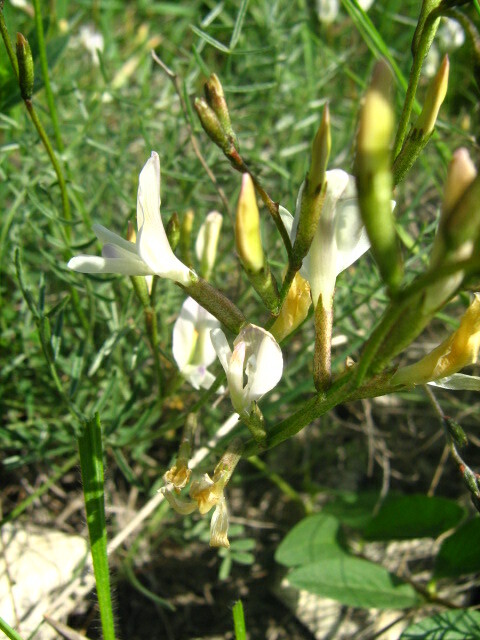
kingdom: Plantae
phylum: Tracheophyta
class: Magnoliopsida
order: Fabales
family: Fabaceae
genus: Astragalus
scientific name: Astragalus ucrainicus
